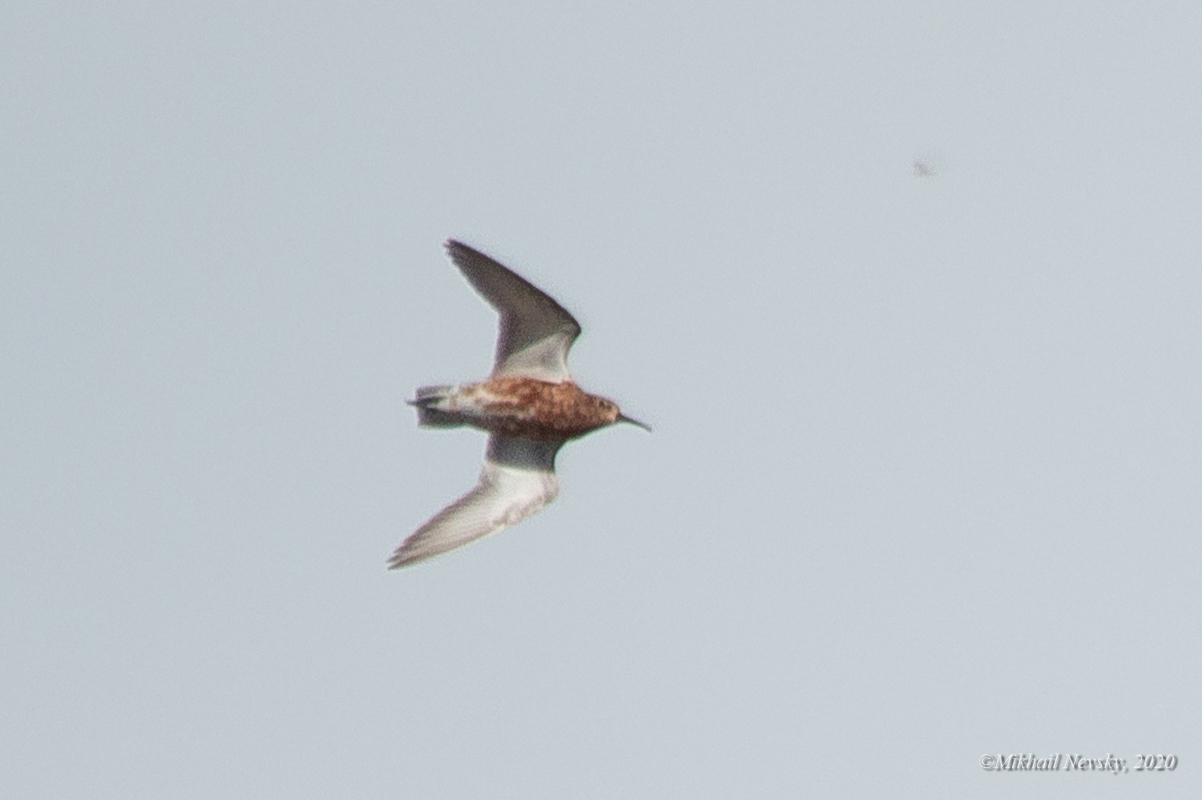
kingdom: Animalia
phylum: Chordata
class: Aves
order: Charadriiformes
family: Scolopacidae
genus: Calidris
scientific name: Calidris ferruginea
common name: Curlew sandpiper
